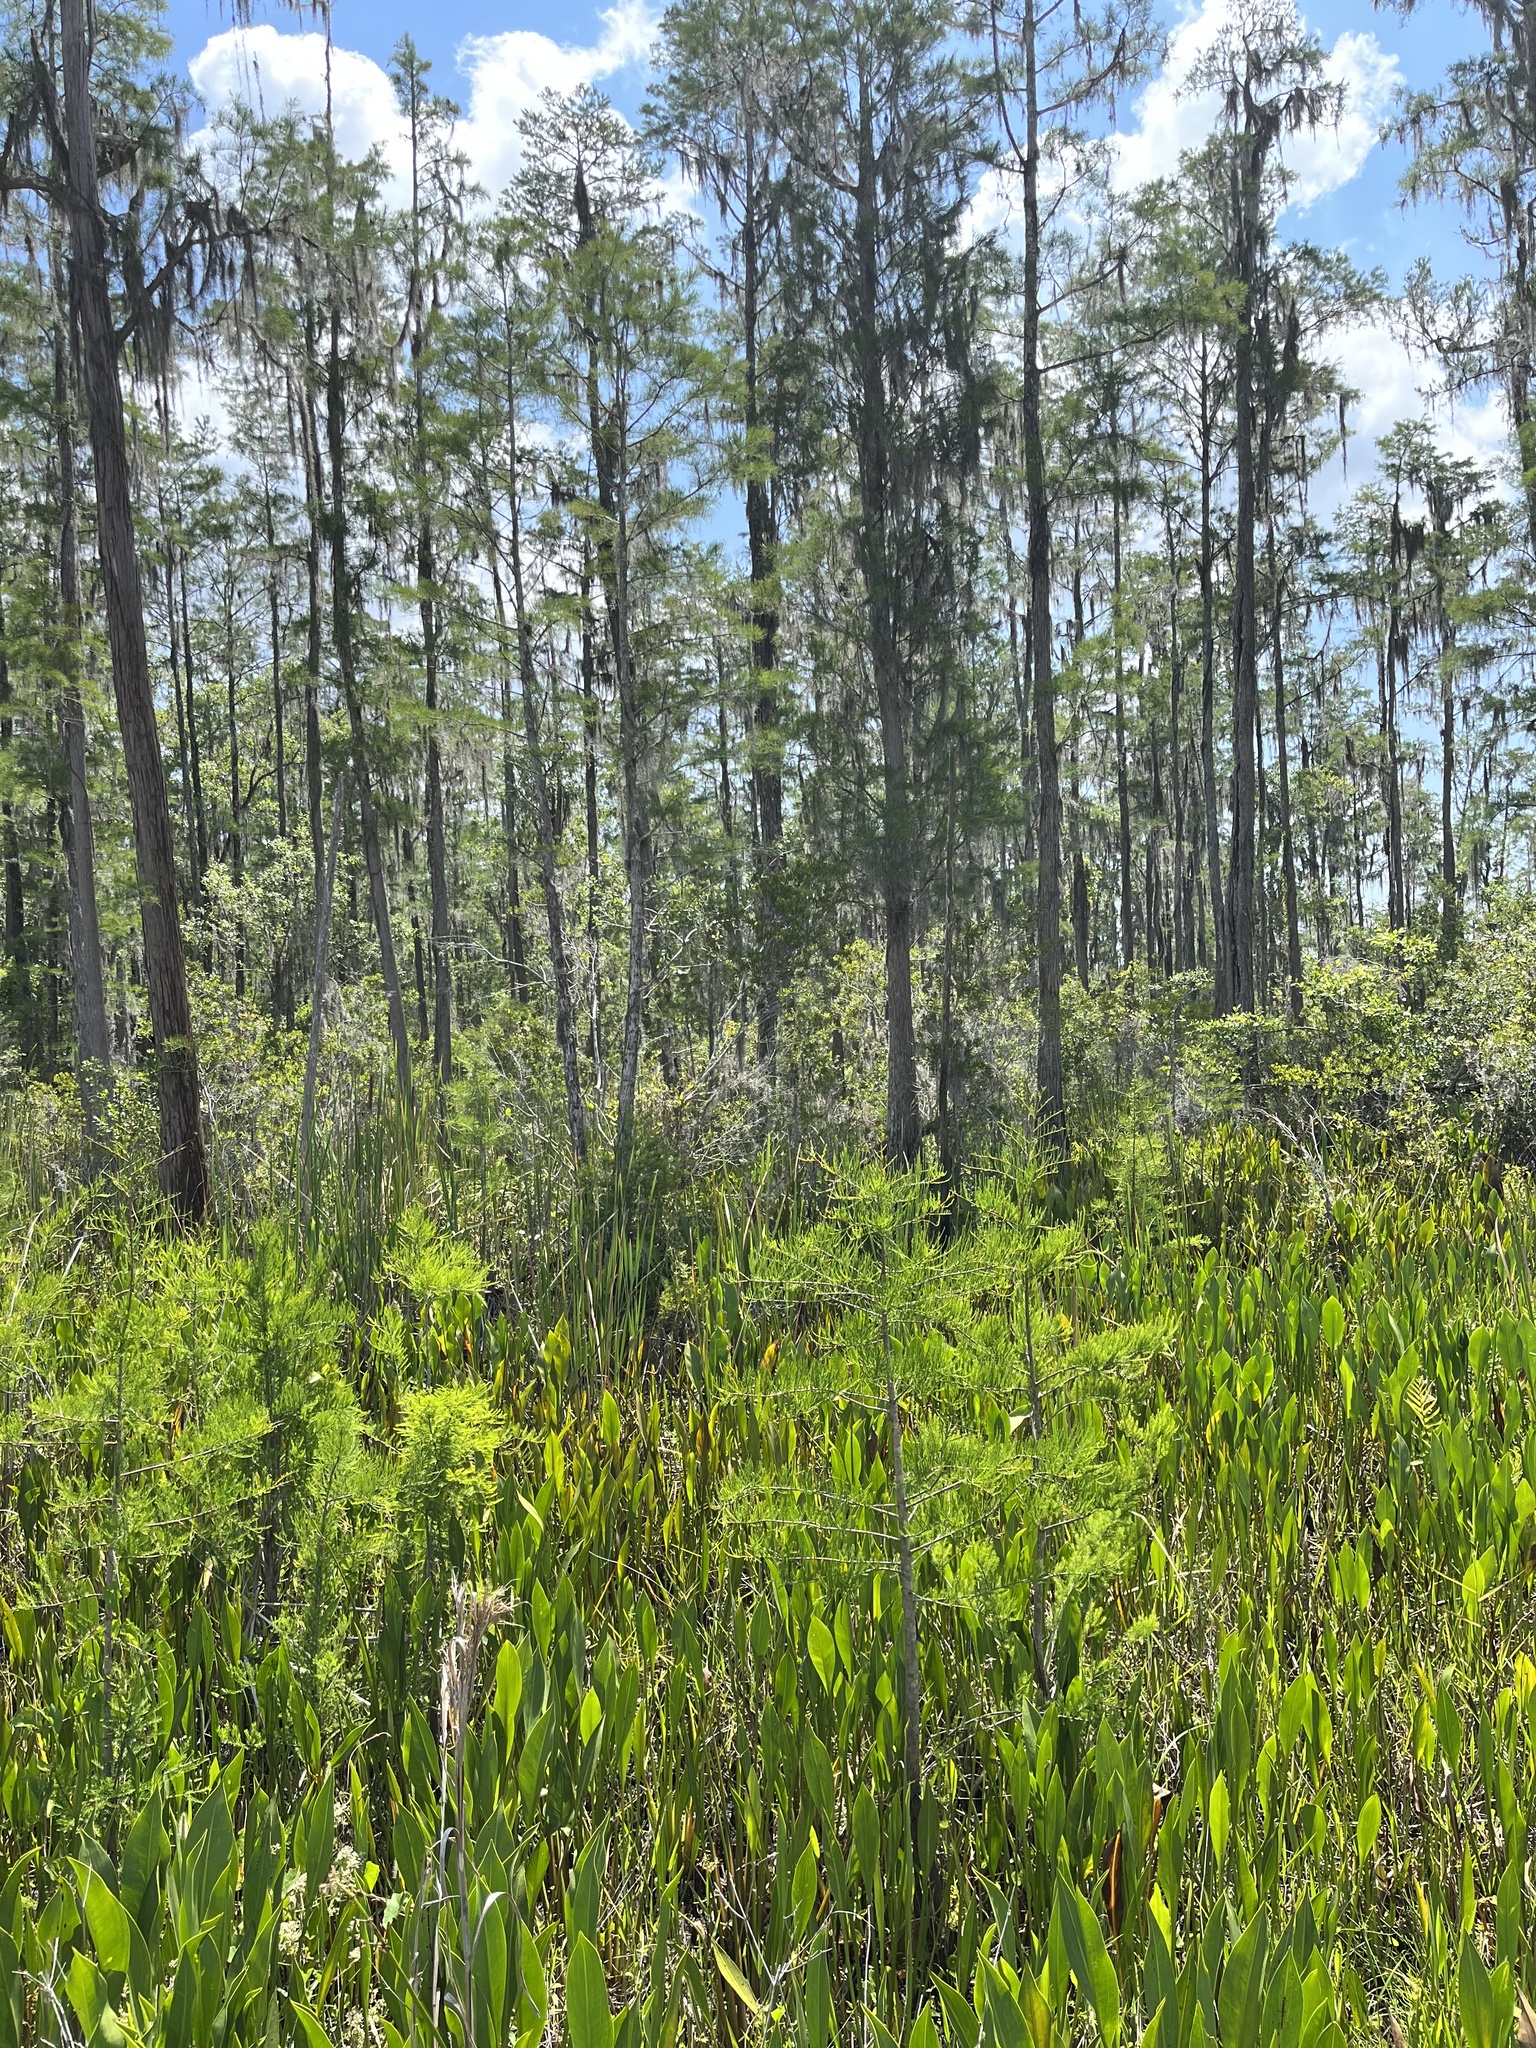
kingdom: Plantae
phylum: Tracheophyta
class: Pinopsida
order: Pinales
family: Cupressaceae
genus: Taxodium
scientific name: Taxodium distichum
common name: Bald cypress
